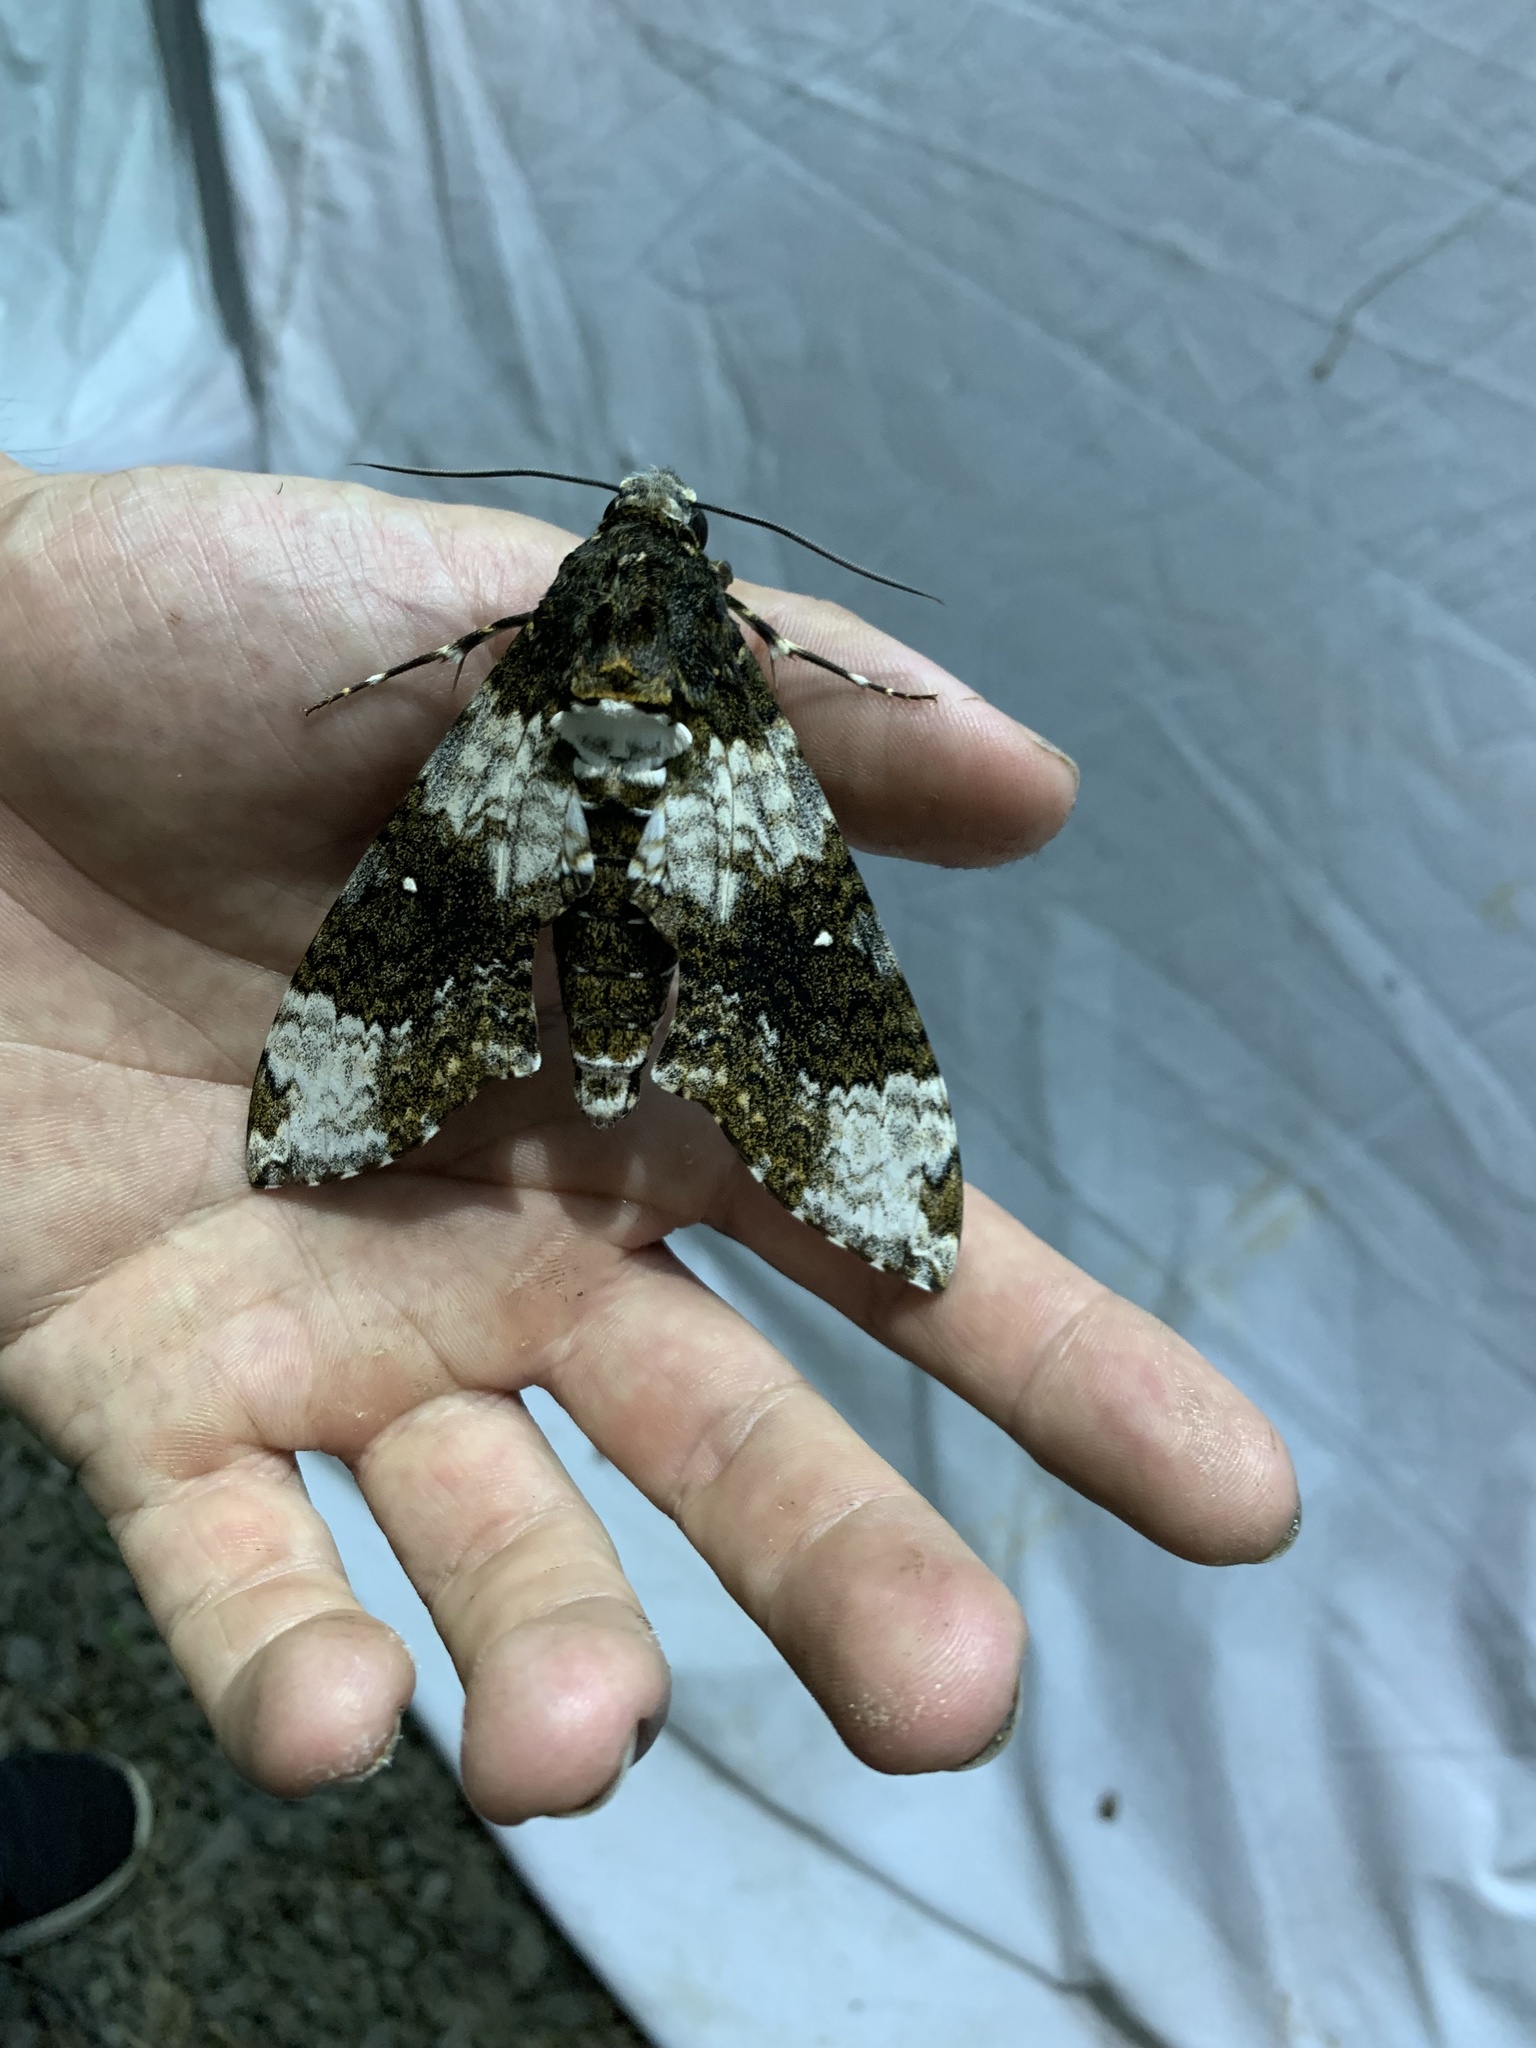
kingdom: Animalia
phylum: Arthropoda
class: Insecta
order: Lepidoptera
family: Sphingidae
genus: Manduca
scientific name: Manduca albiplaga
